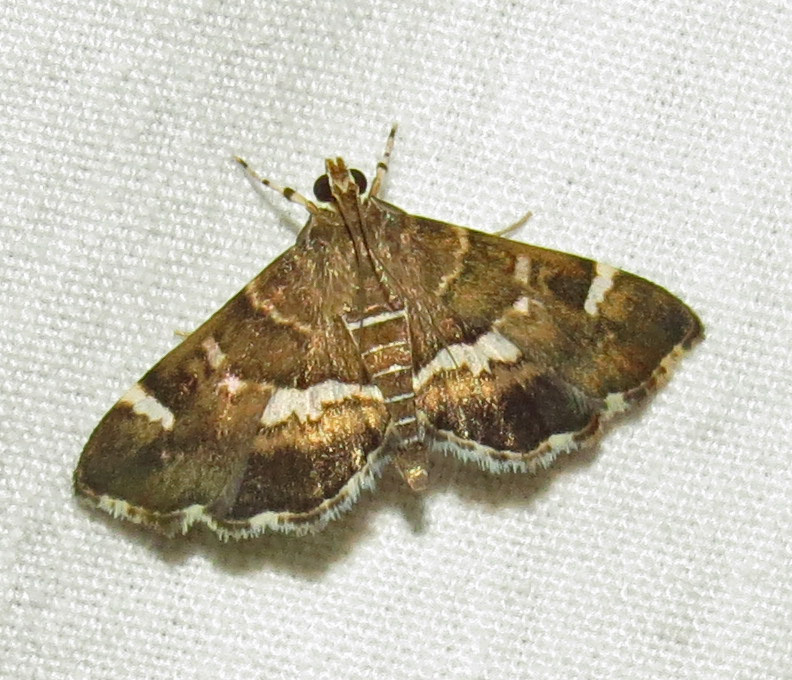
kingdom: Animalia
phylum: Arthropoda
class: Insecta
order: Lepidoptera
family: Crambidae
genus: Hymenia
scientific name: Hymenia perspectalis
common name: Spotted beet webworm
